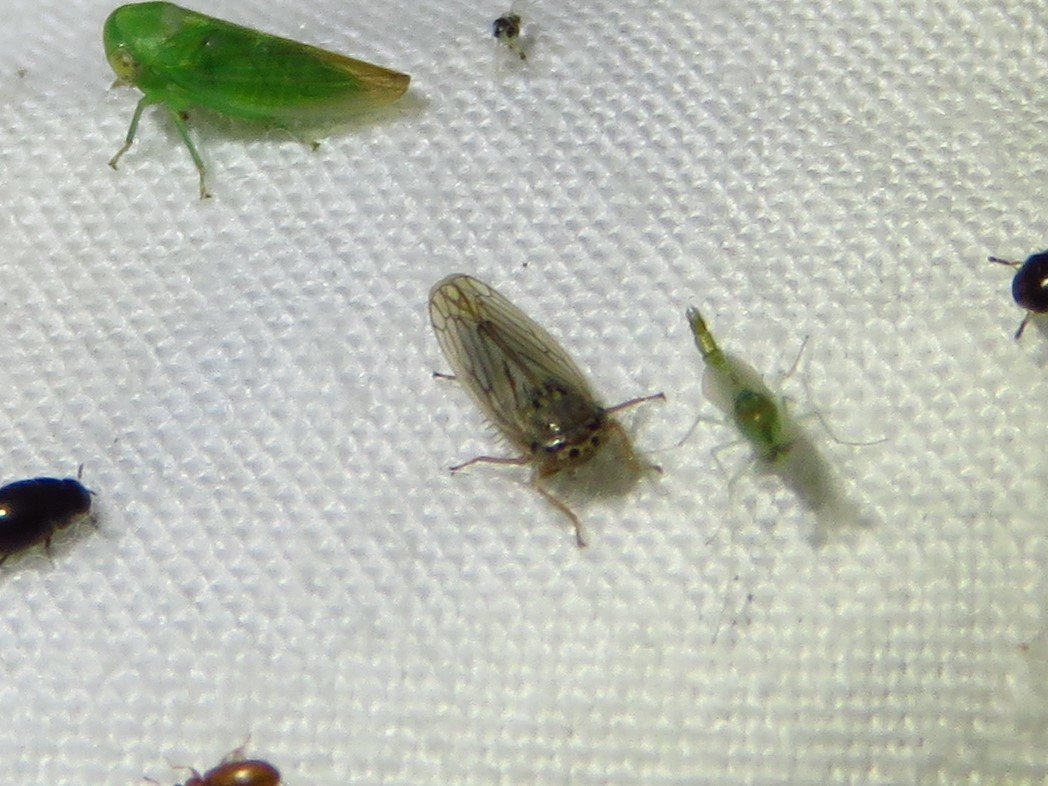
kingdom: Animalia
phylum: Arthropoda
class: Insecta
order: Hemiptera
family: Cicadellidae
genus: Exitianus
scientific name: Exitianus exitiosus
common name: Gray lawn leafhopper
